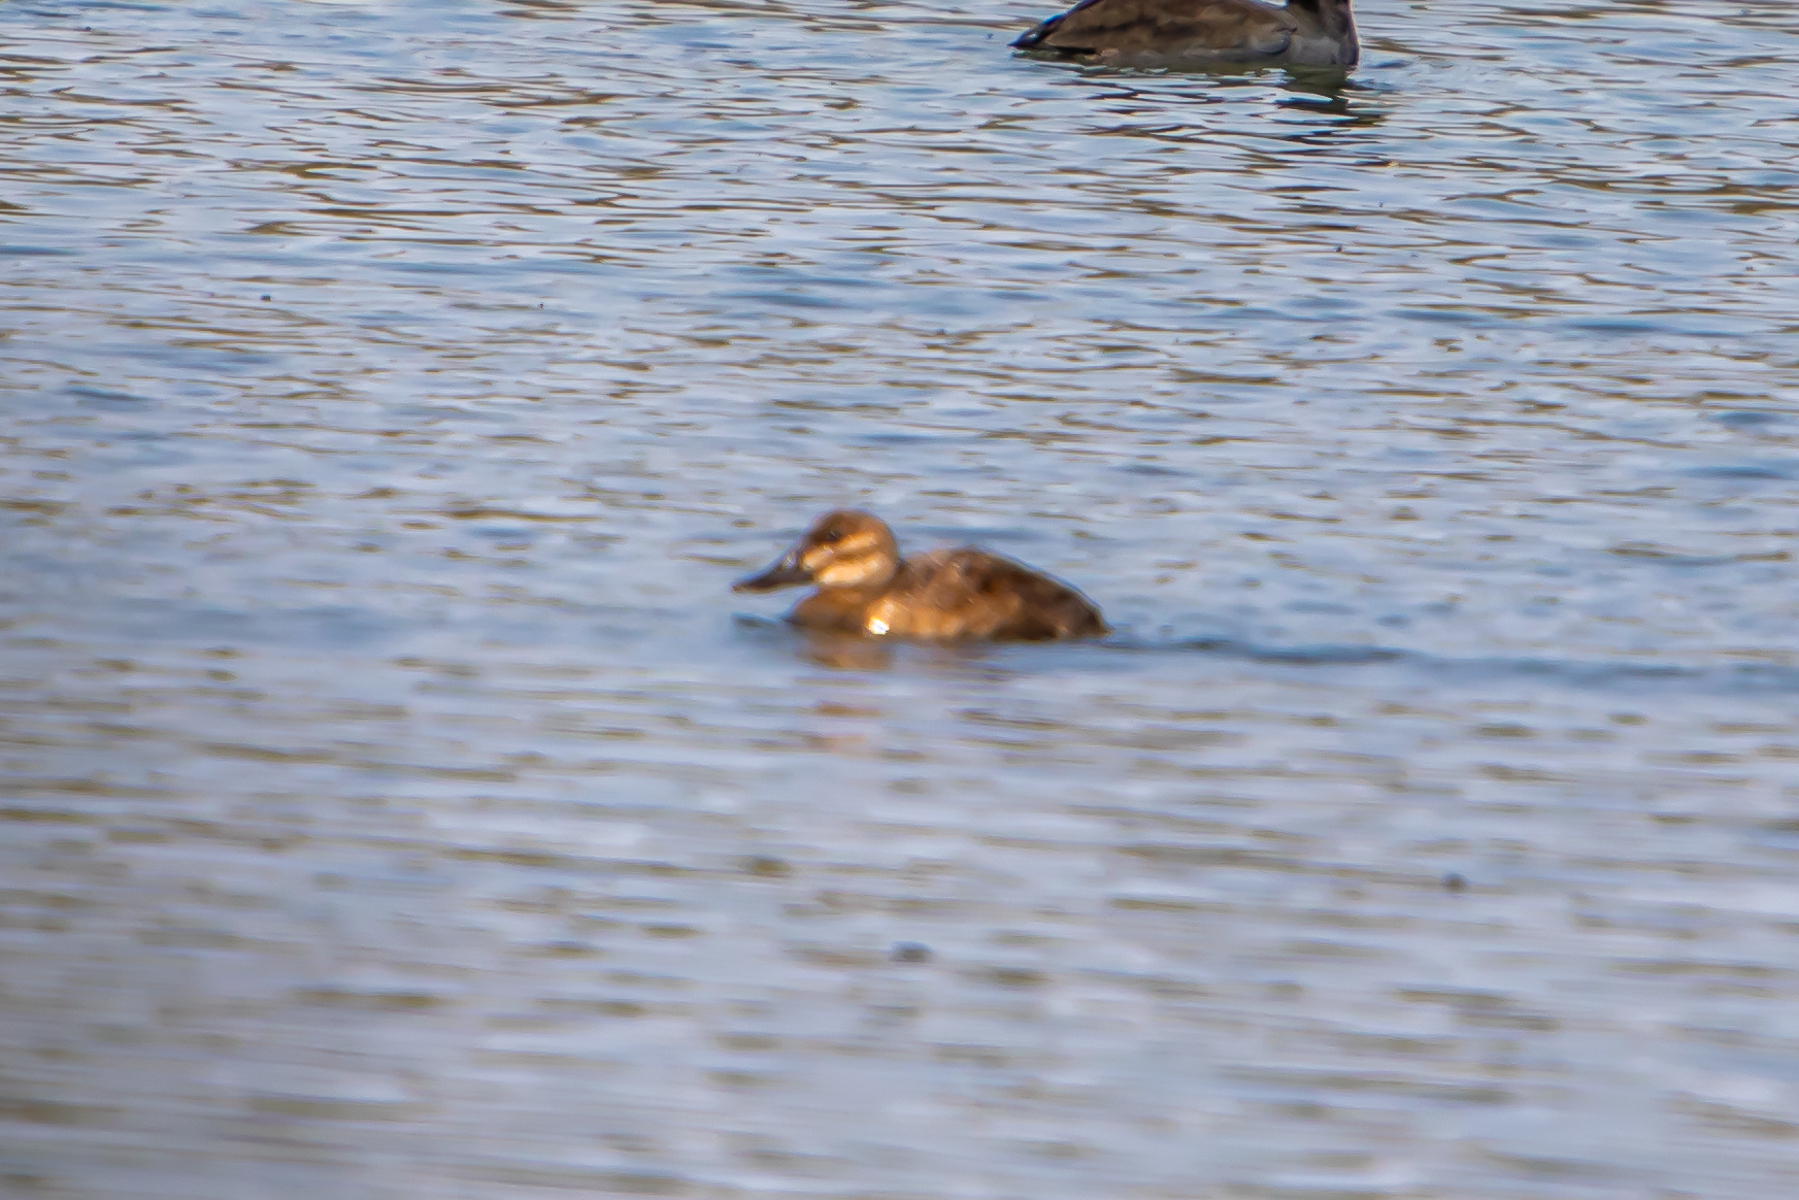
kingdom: Animalia
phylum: Chordata
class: Aves
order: Anseriformes
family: Anatidae
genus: Oxyura
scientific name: Oxyura jamaicensis
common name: Ruddy duck
